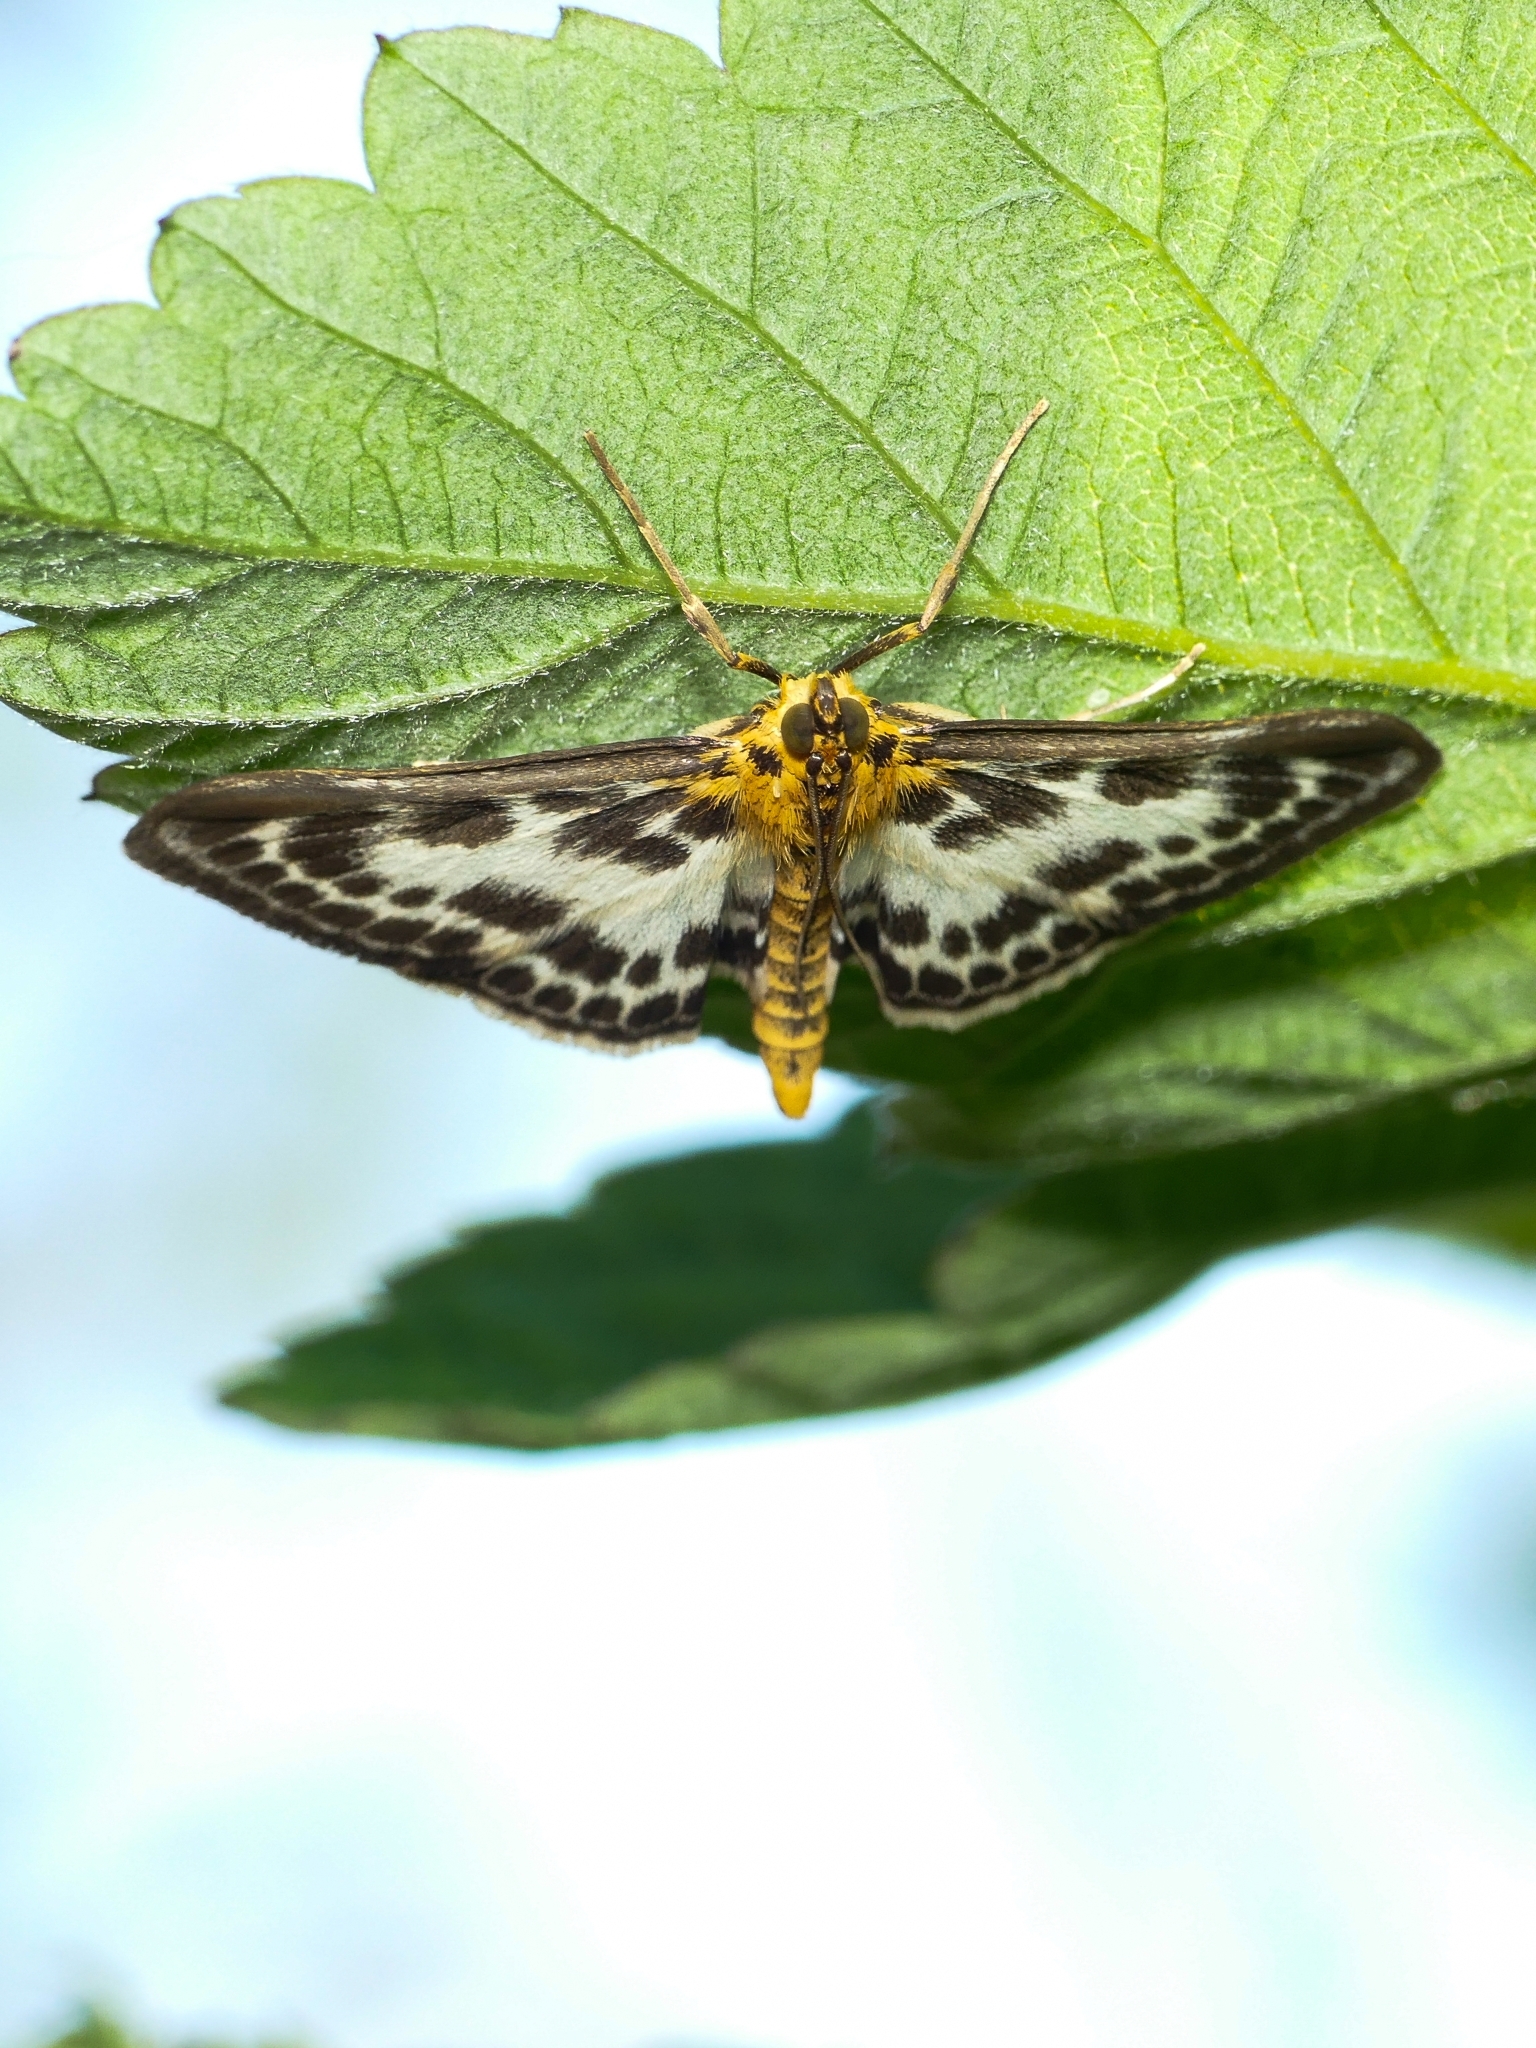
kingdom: Animalia
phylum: Arthropoda
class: Insecta
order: Lepidoptera
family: Crambidae
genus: Anania
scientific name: Anania hortulata
